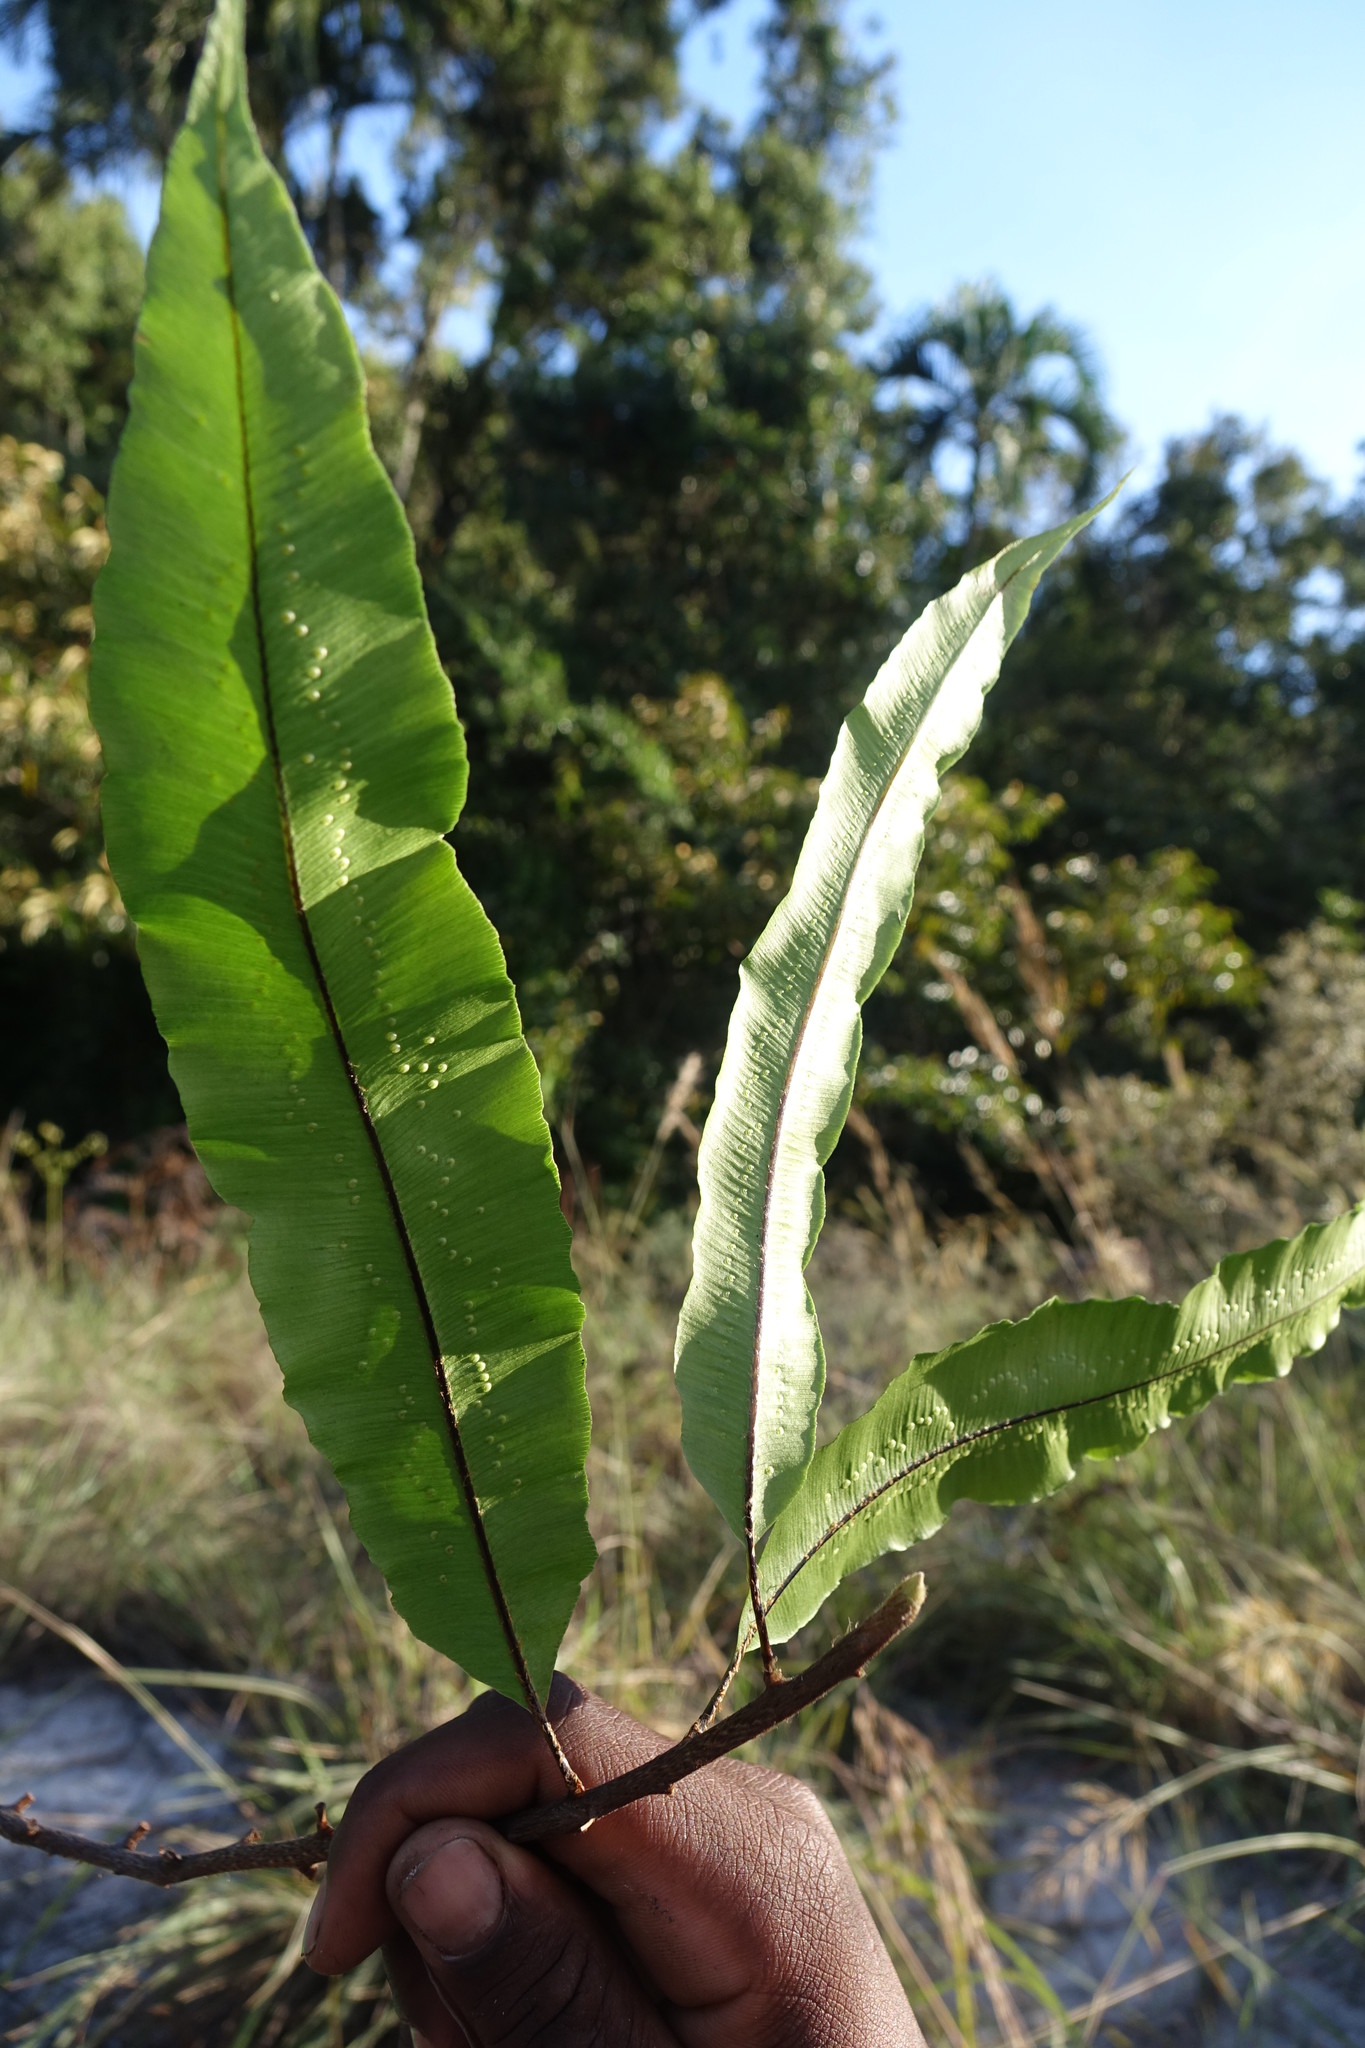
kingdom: Plantae
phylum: Tracheophyta
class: Polypodiopsida
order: Polypodiales
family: Oleandraceae
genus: Oleandra
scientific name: Oleandra distenta
